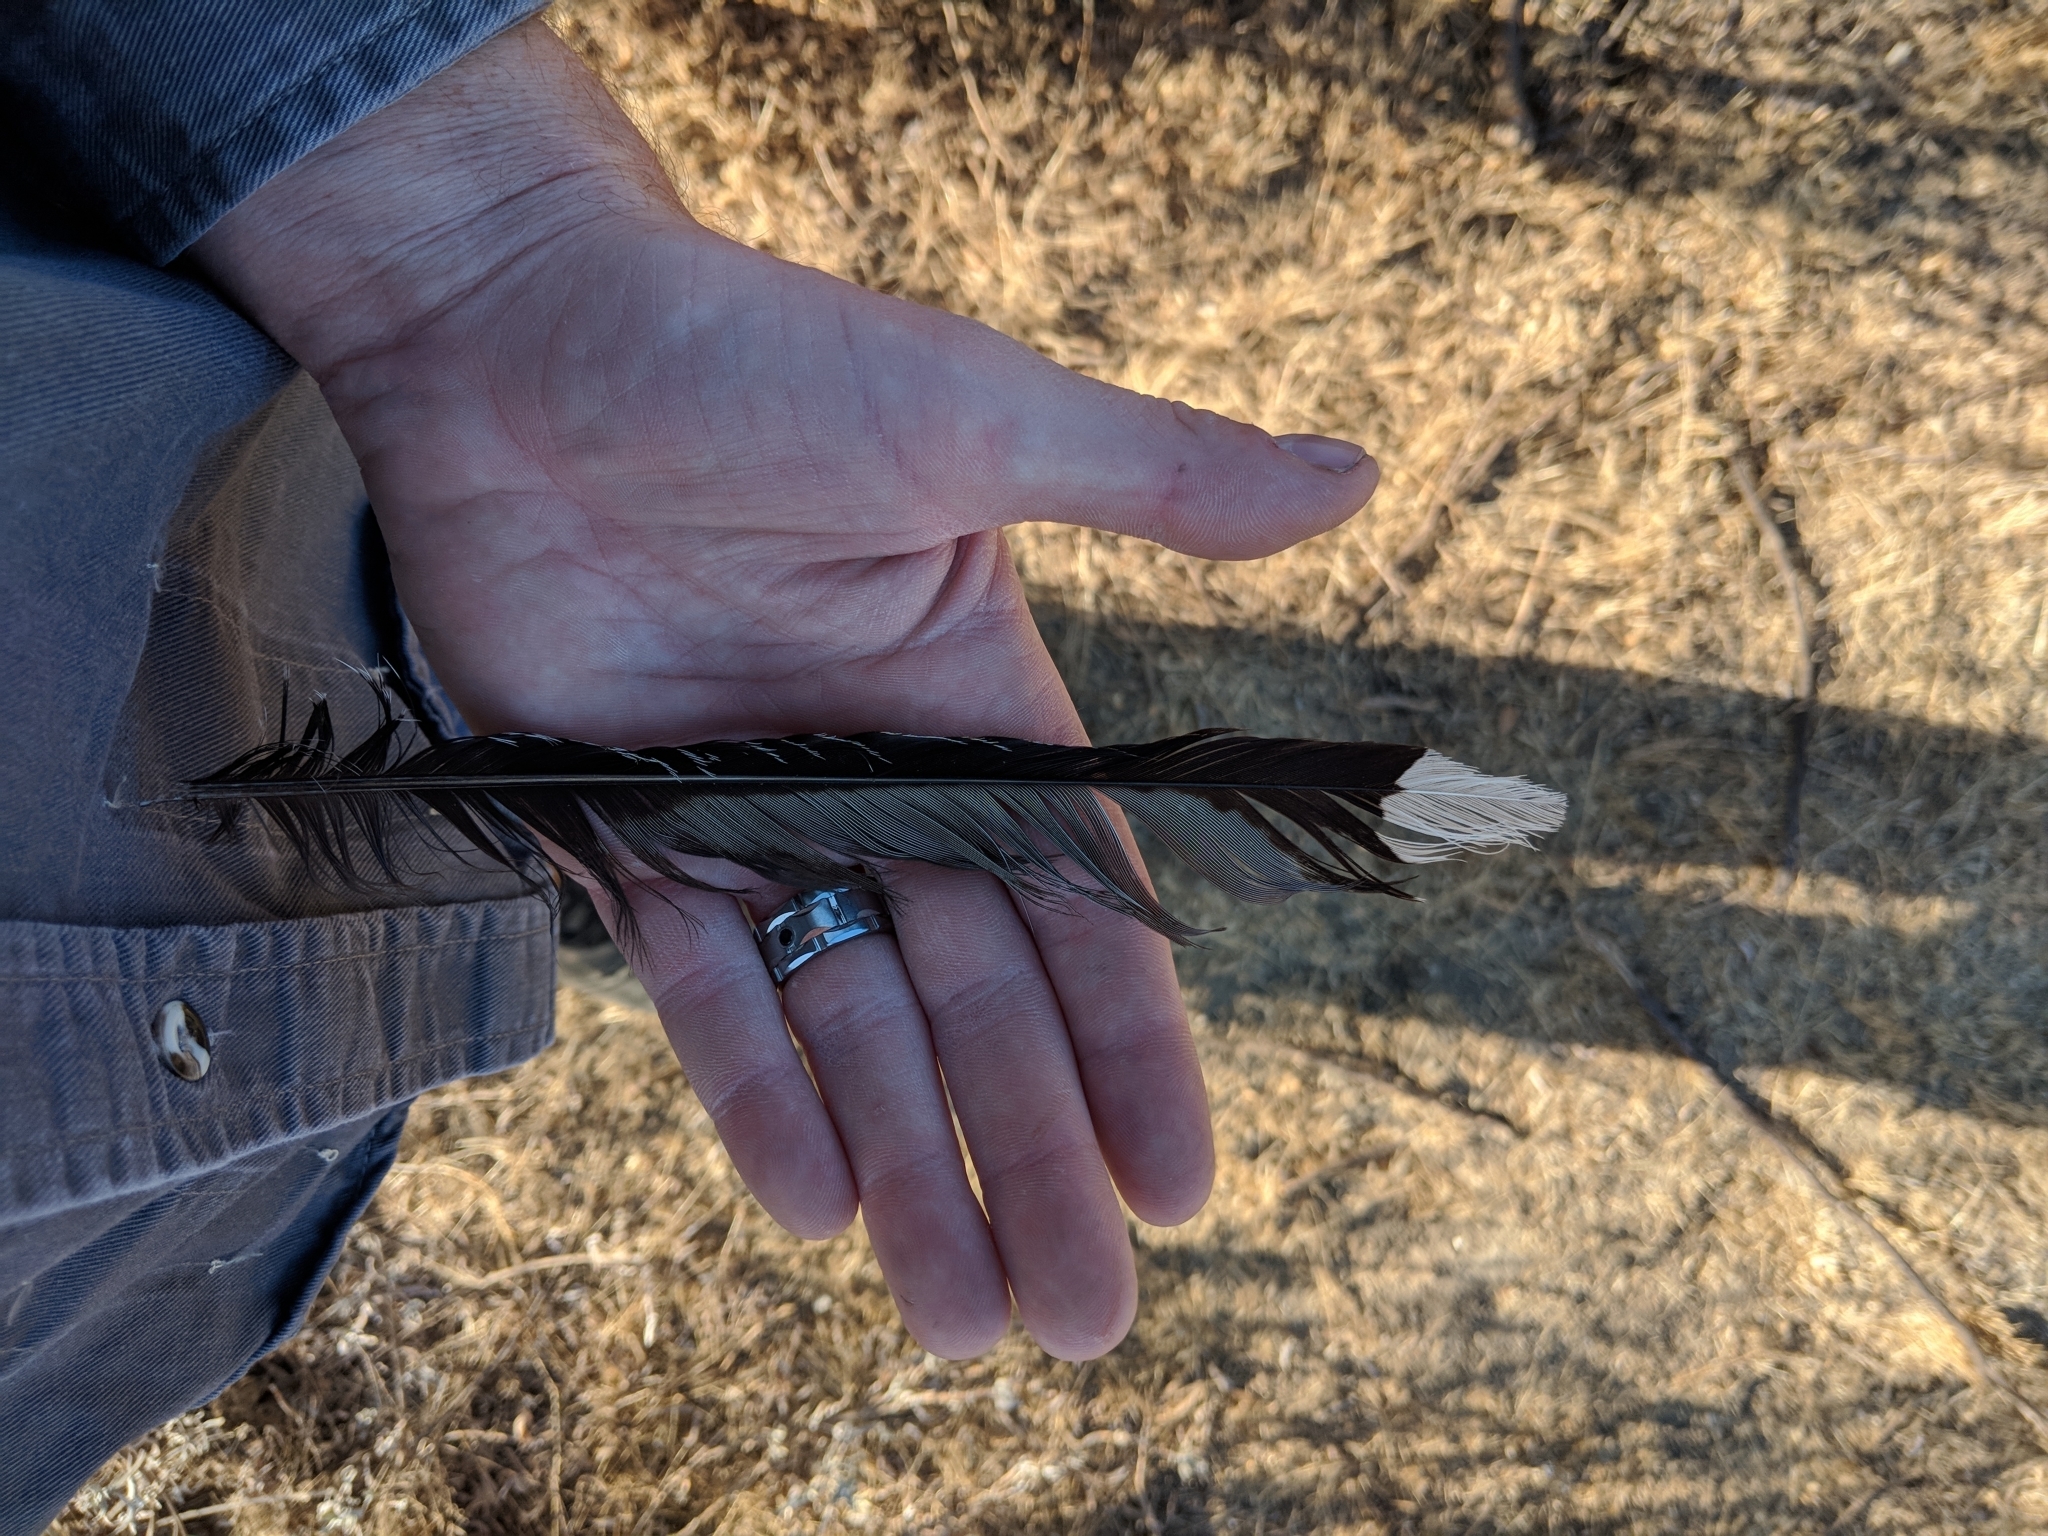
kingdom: Animalia
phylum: Chordata
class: Aves
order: Cuculiformes
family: Cuculidae
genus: Geococcyx
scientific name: Geococcyx californianus
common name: Greater roadrunner
